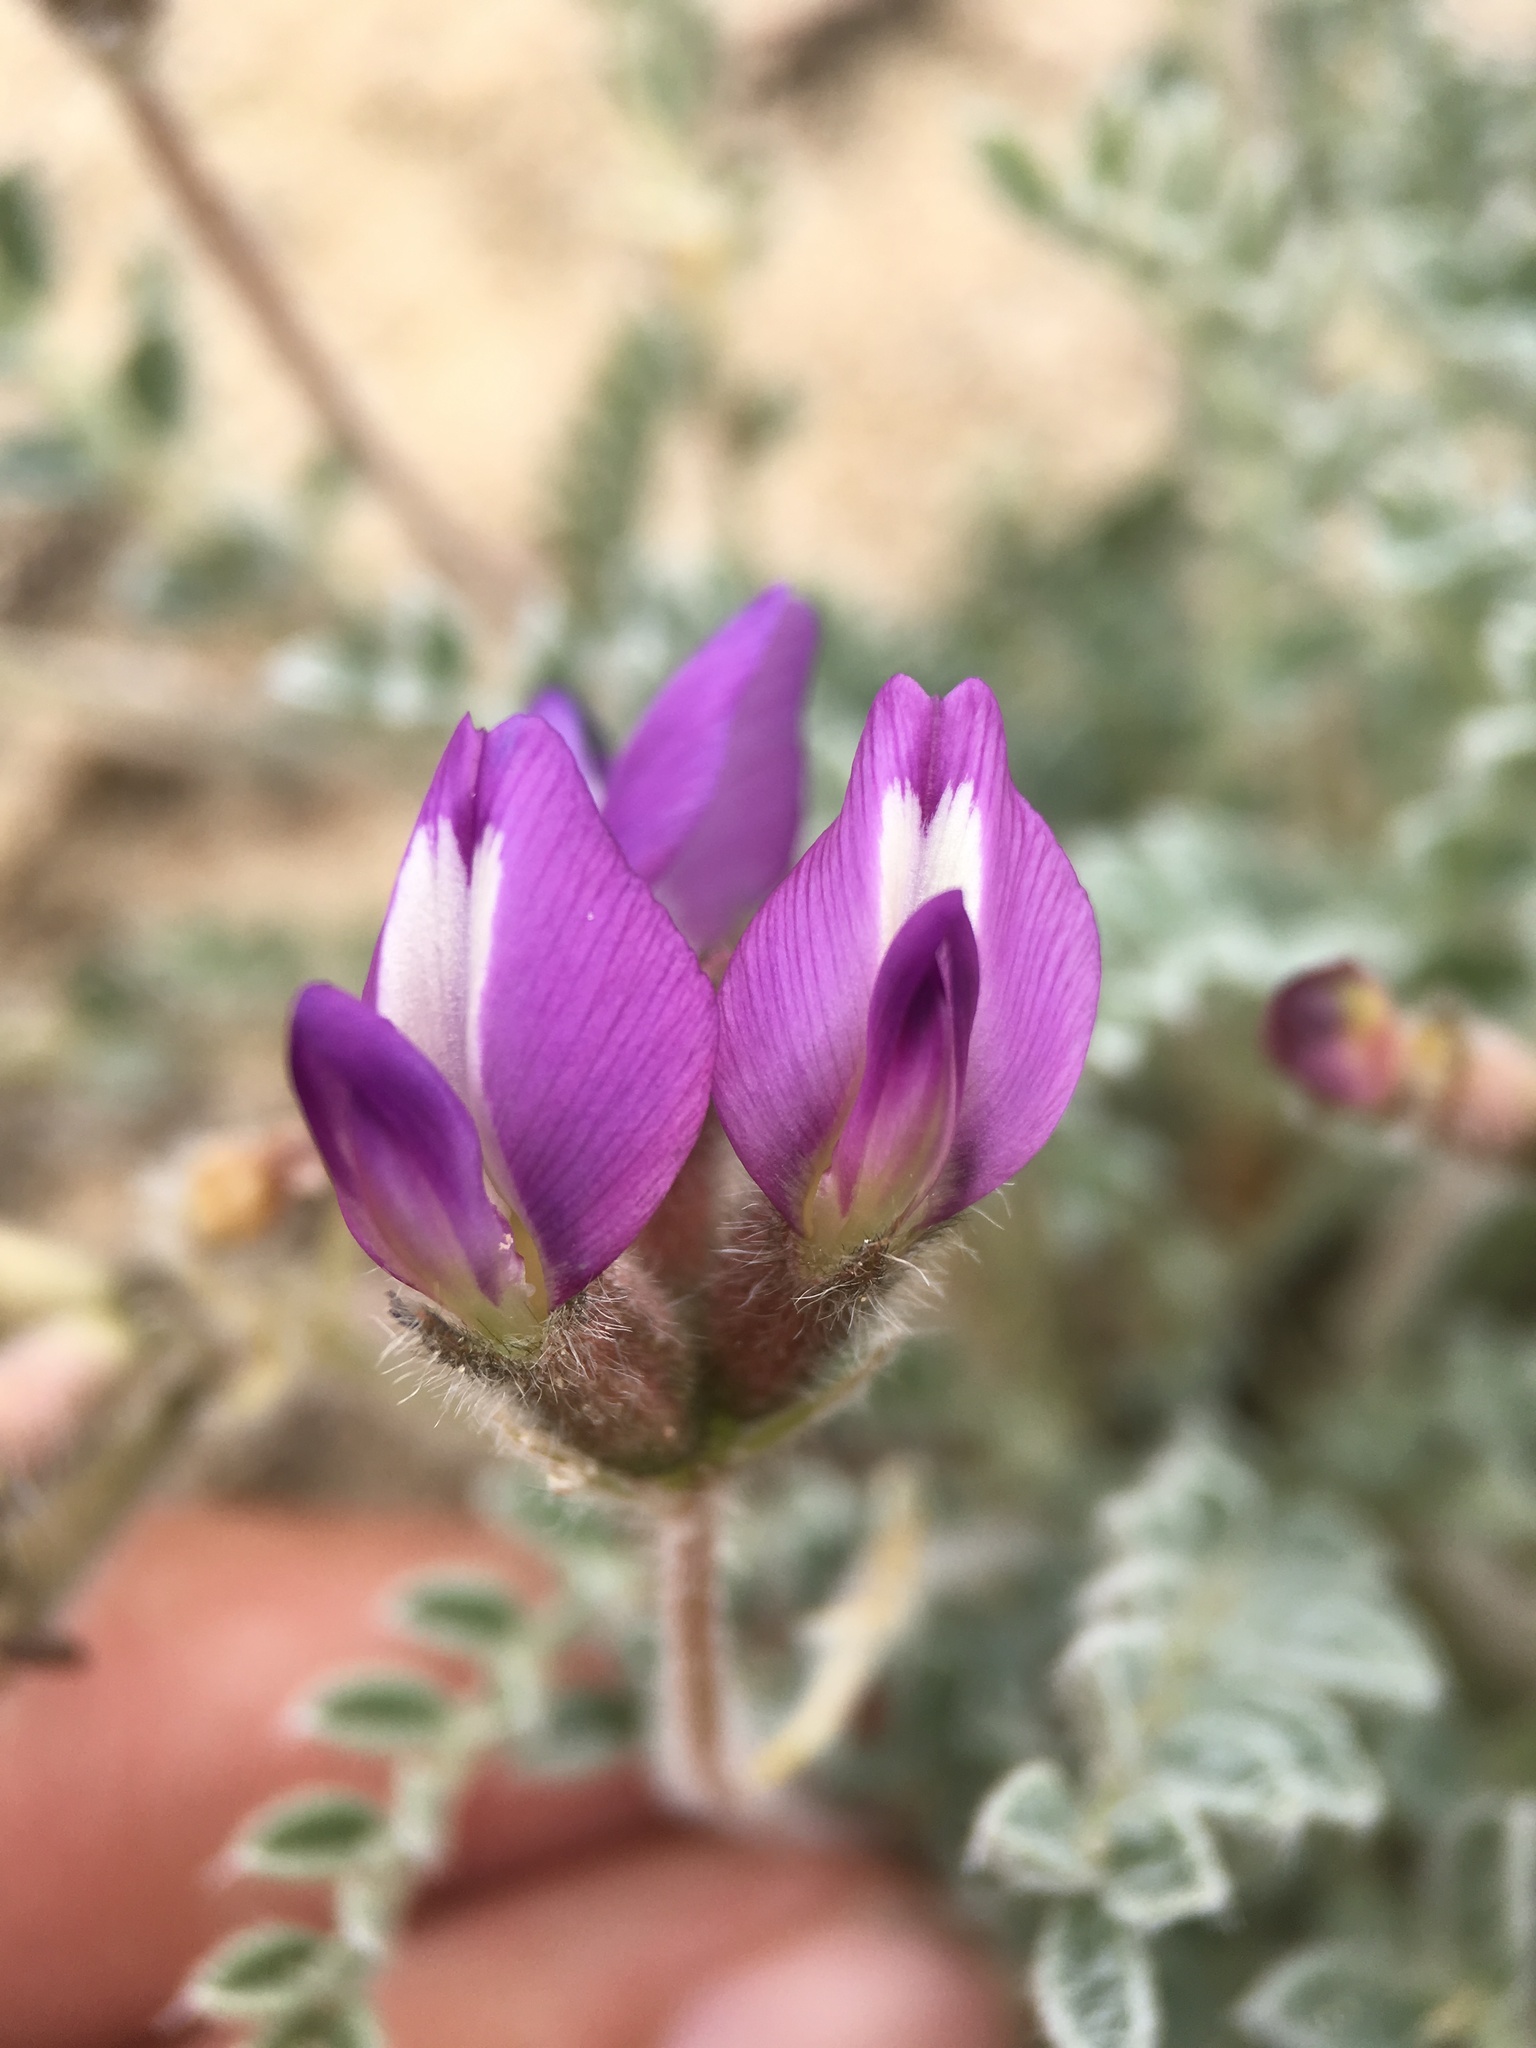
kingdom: Plantae
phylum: Tracheophyta
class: Magnoliopsida
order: Fabales
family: Fabaceae
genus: Astragalus
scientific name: Astragalus purshii
